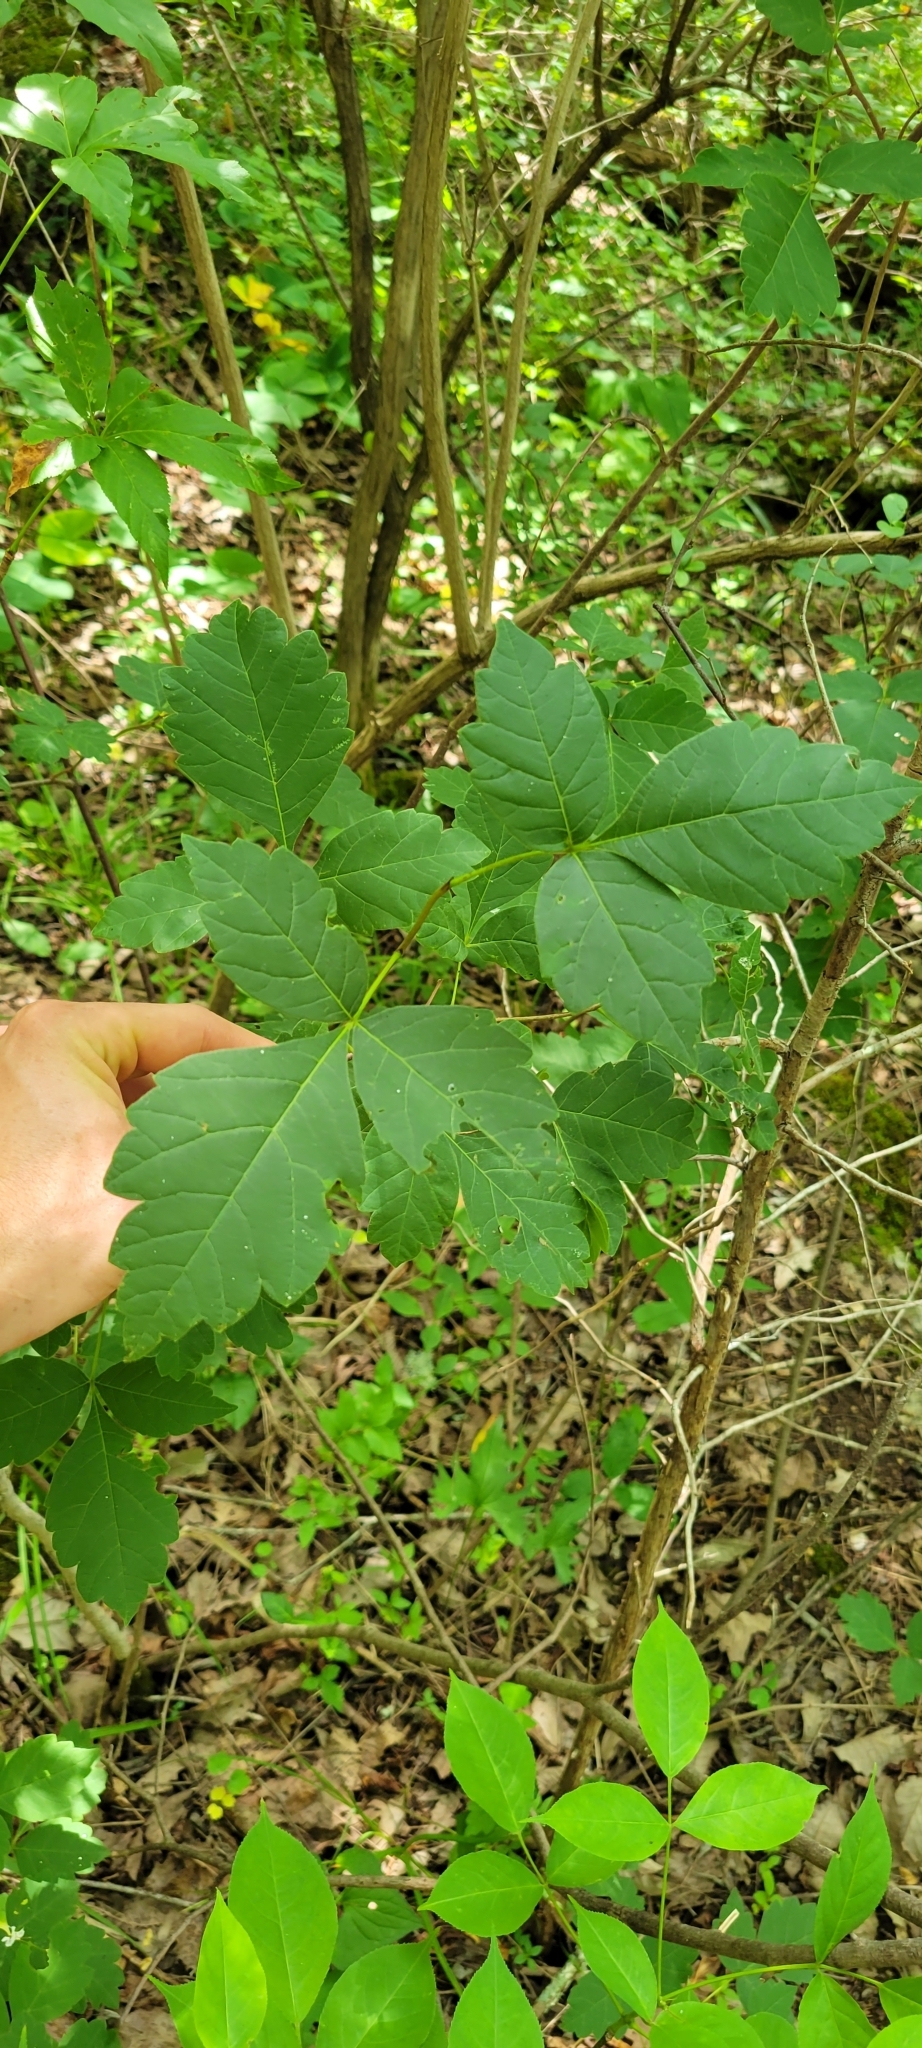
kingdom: Plantae
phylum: Tracheophyta
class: Magnoliopsida
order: Sapindales
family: Anacardiaceae
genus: Rhus
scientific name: Rhus aromatica
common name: Aromatic sumac
